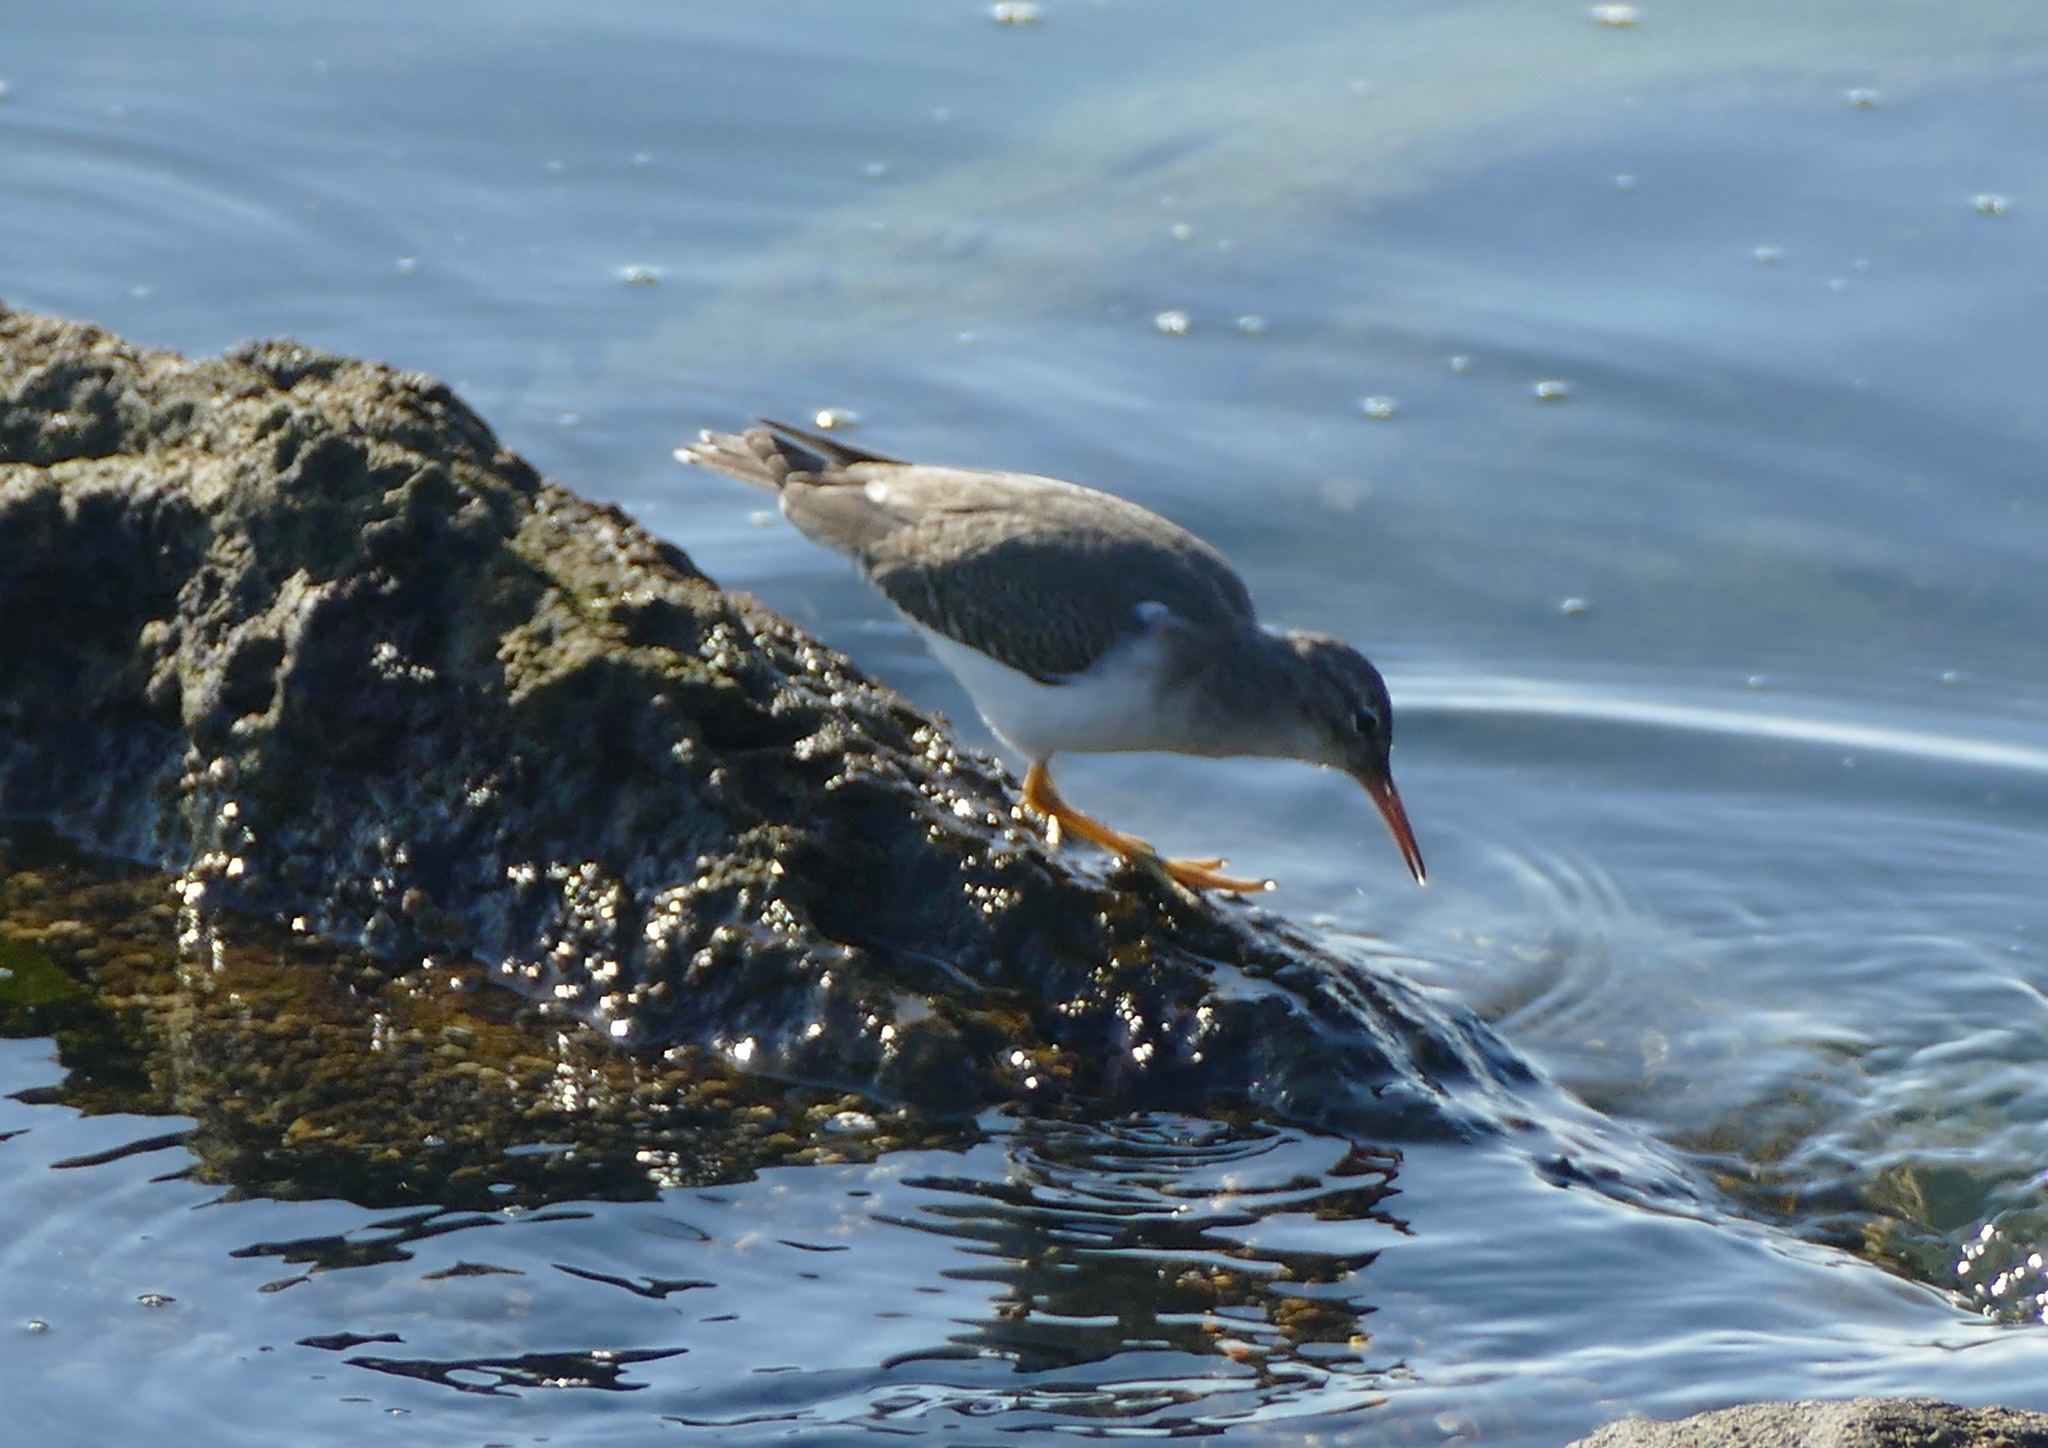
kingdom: Animalia
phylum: Chordata
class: Aves
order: Charadriiformes
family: Scolopacidae
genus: Actitis
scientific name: Actitis macularius
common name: Spotted sandpiper
